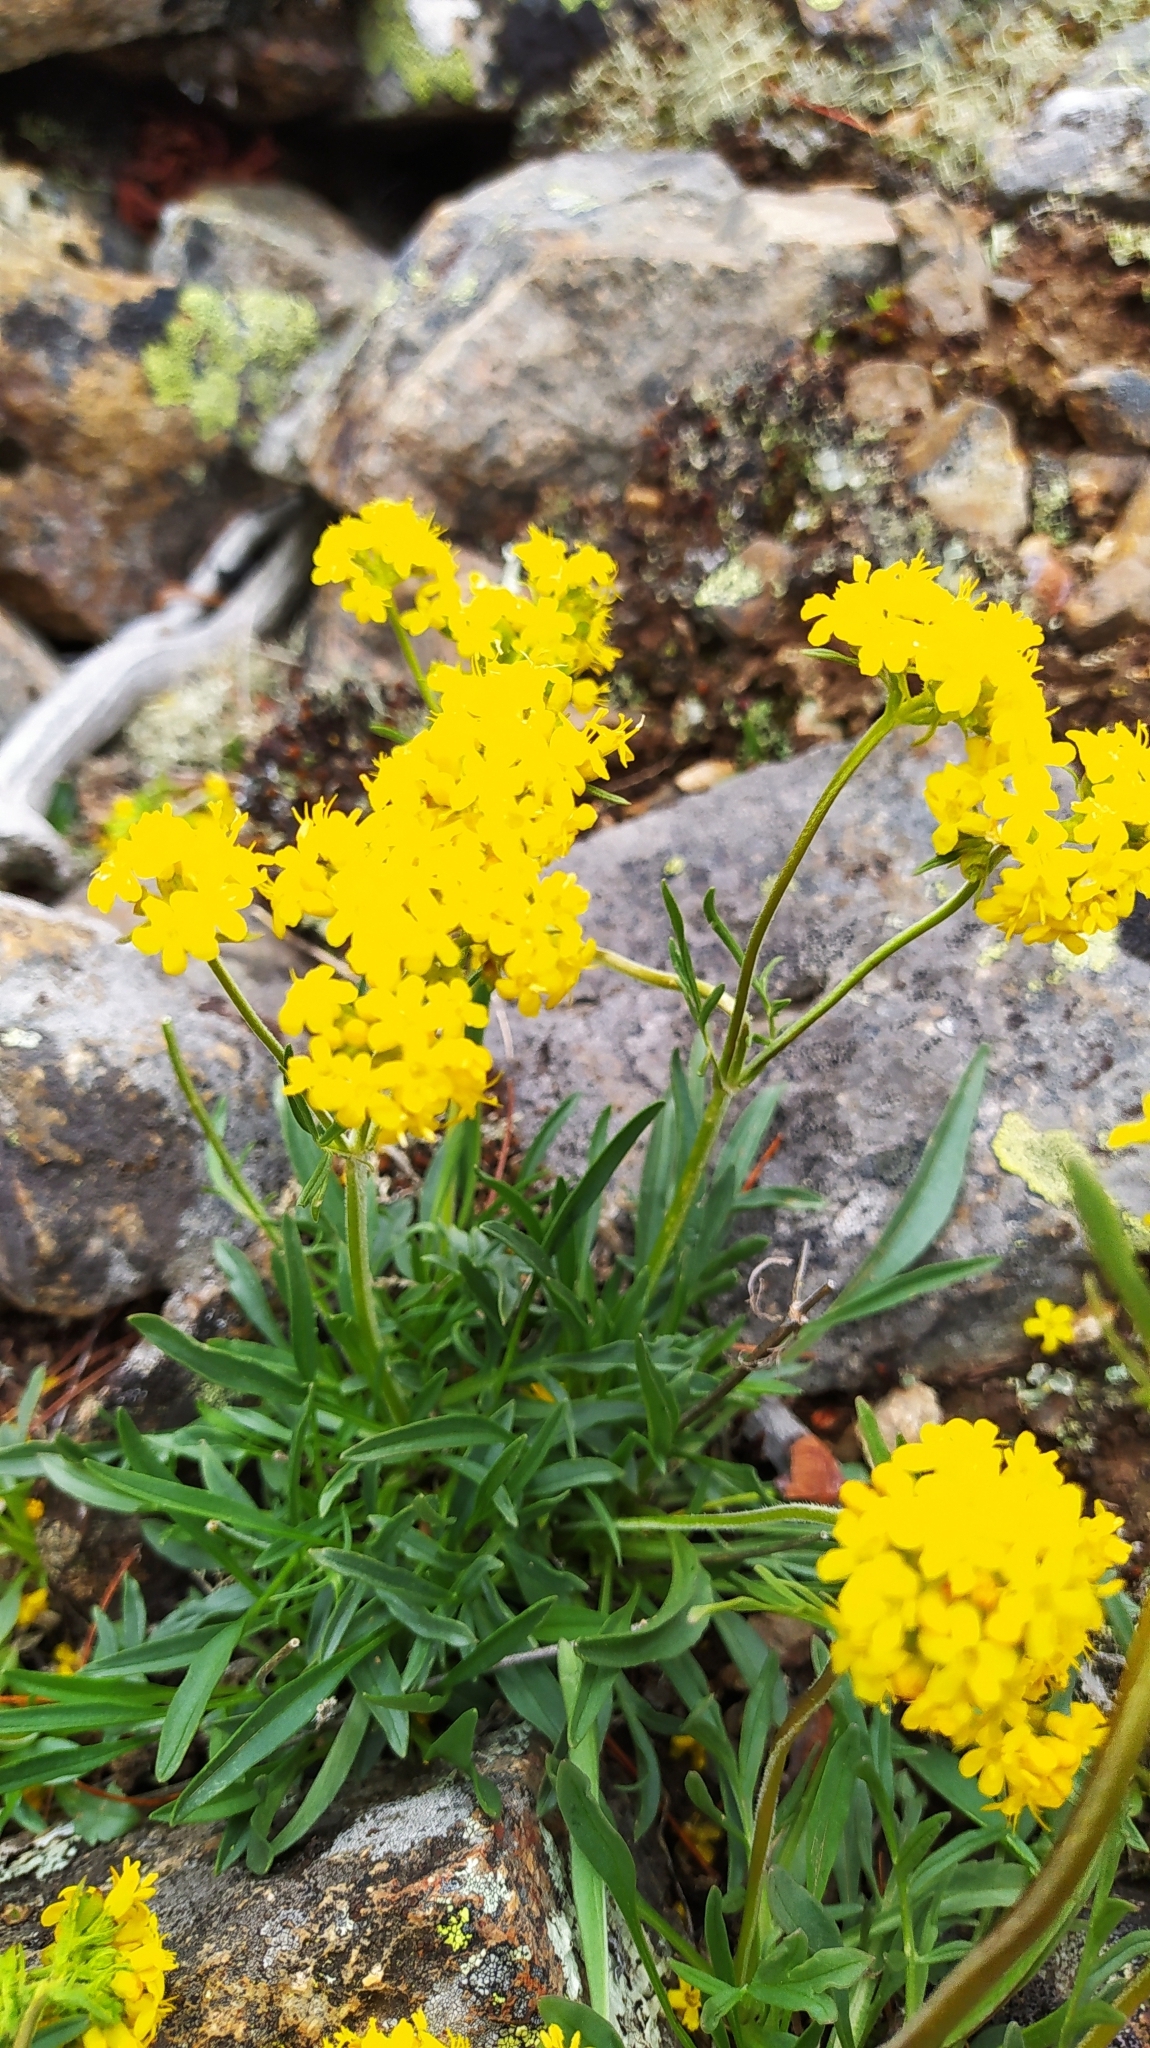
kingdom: Plantae
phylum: Tracheophyta
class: Magnoliopsida
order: Dipsacales
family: Caprifoliaceae
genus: Patrinia
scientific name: Patrinia sibirica
